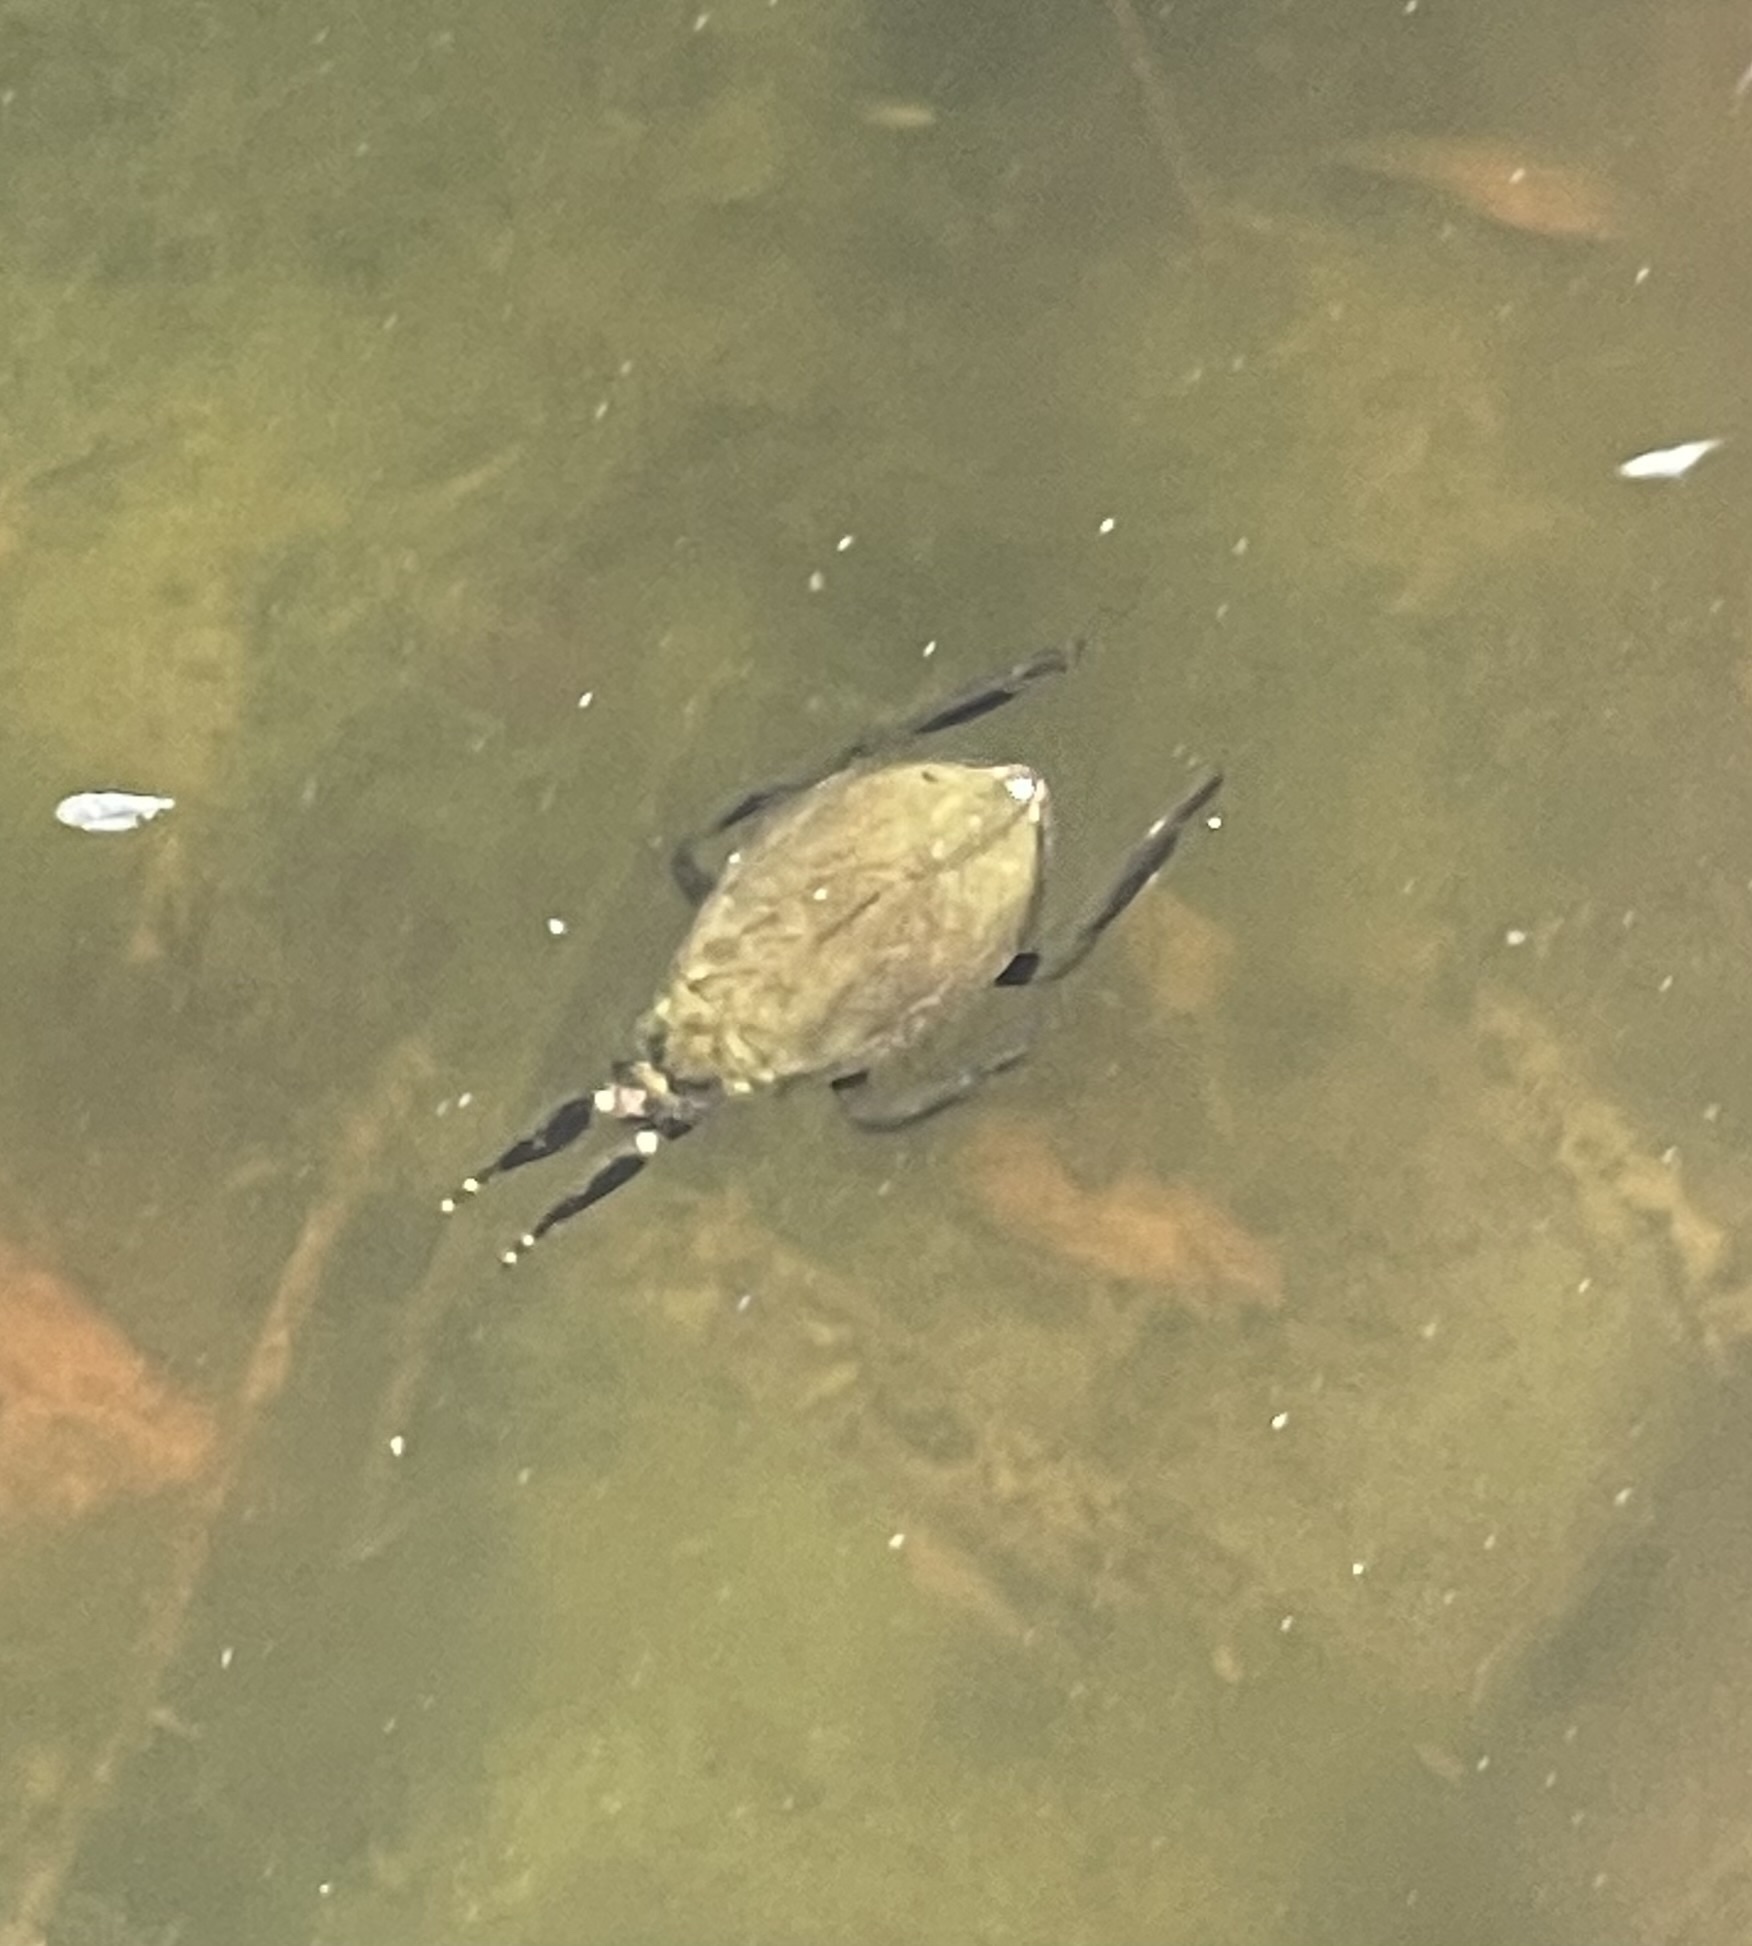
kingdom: Animalia
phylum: Arthropoda
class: Insecta
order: Hemiptera
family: Belostomatidae
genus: Abedus
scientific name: Abedus indentatus
